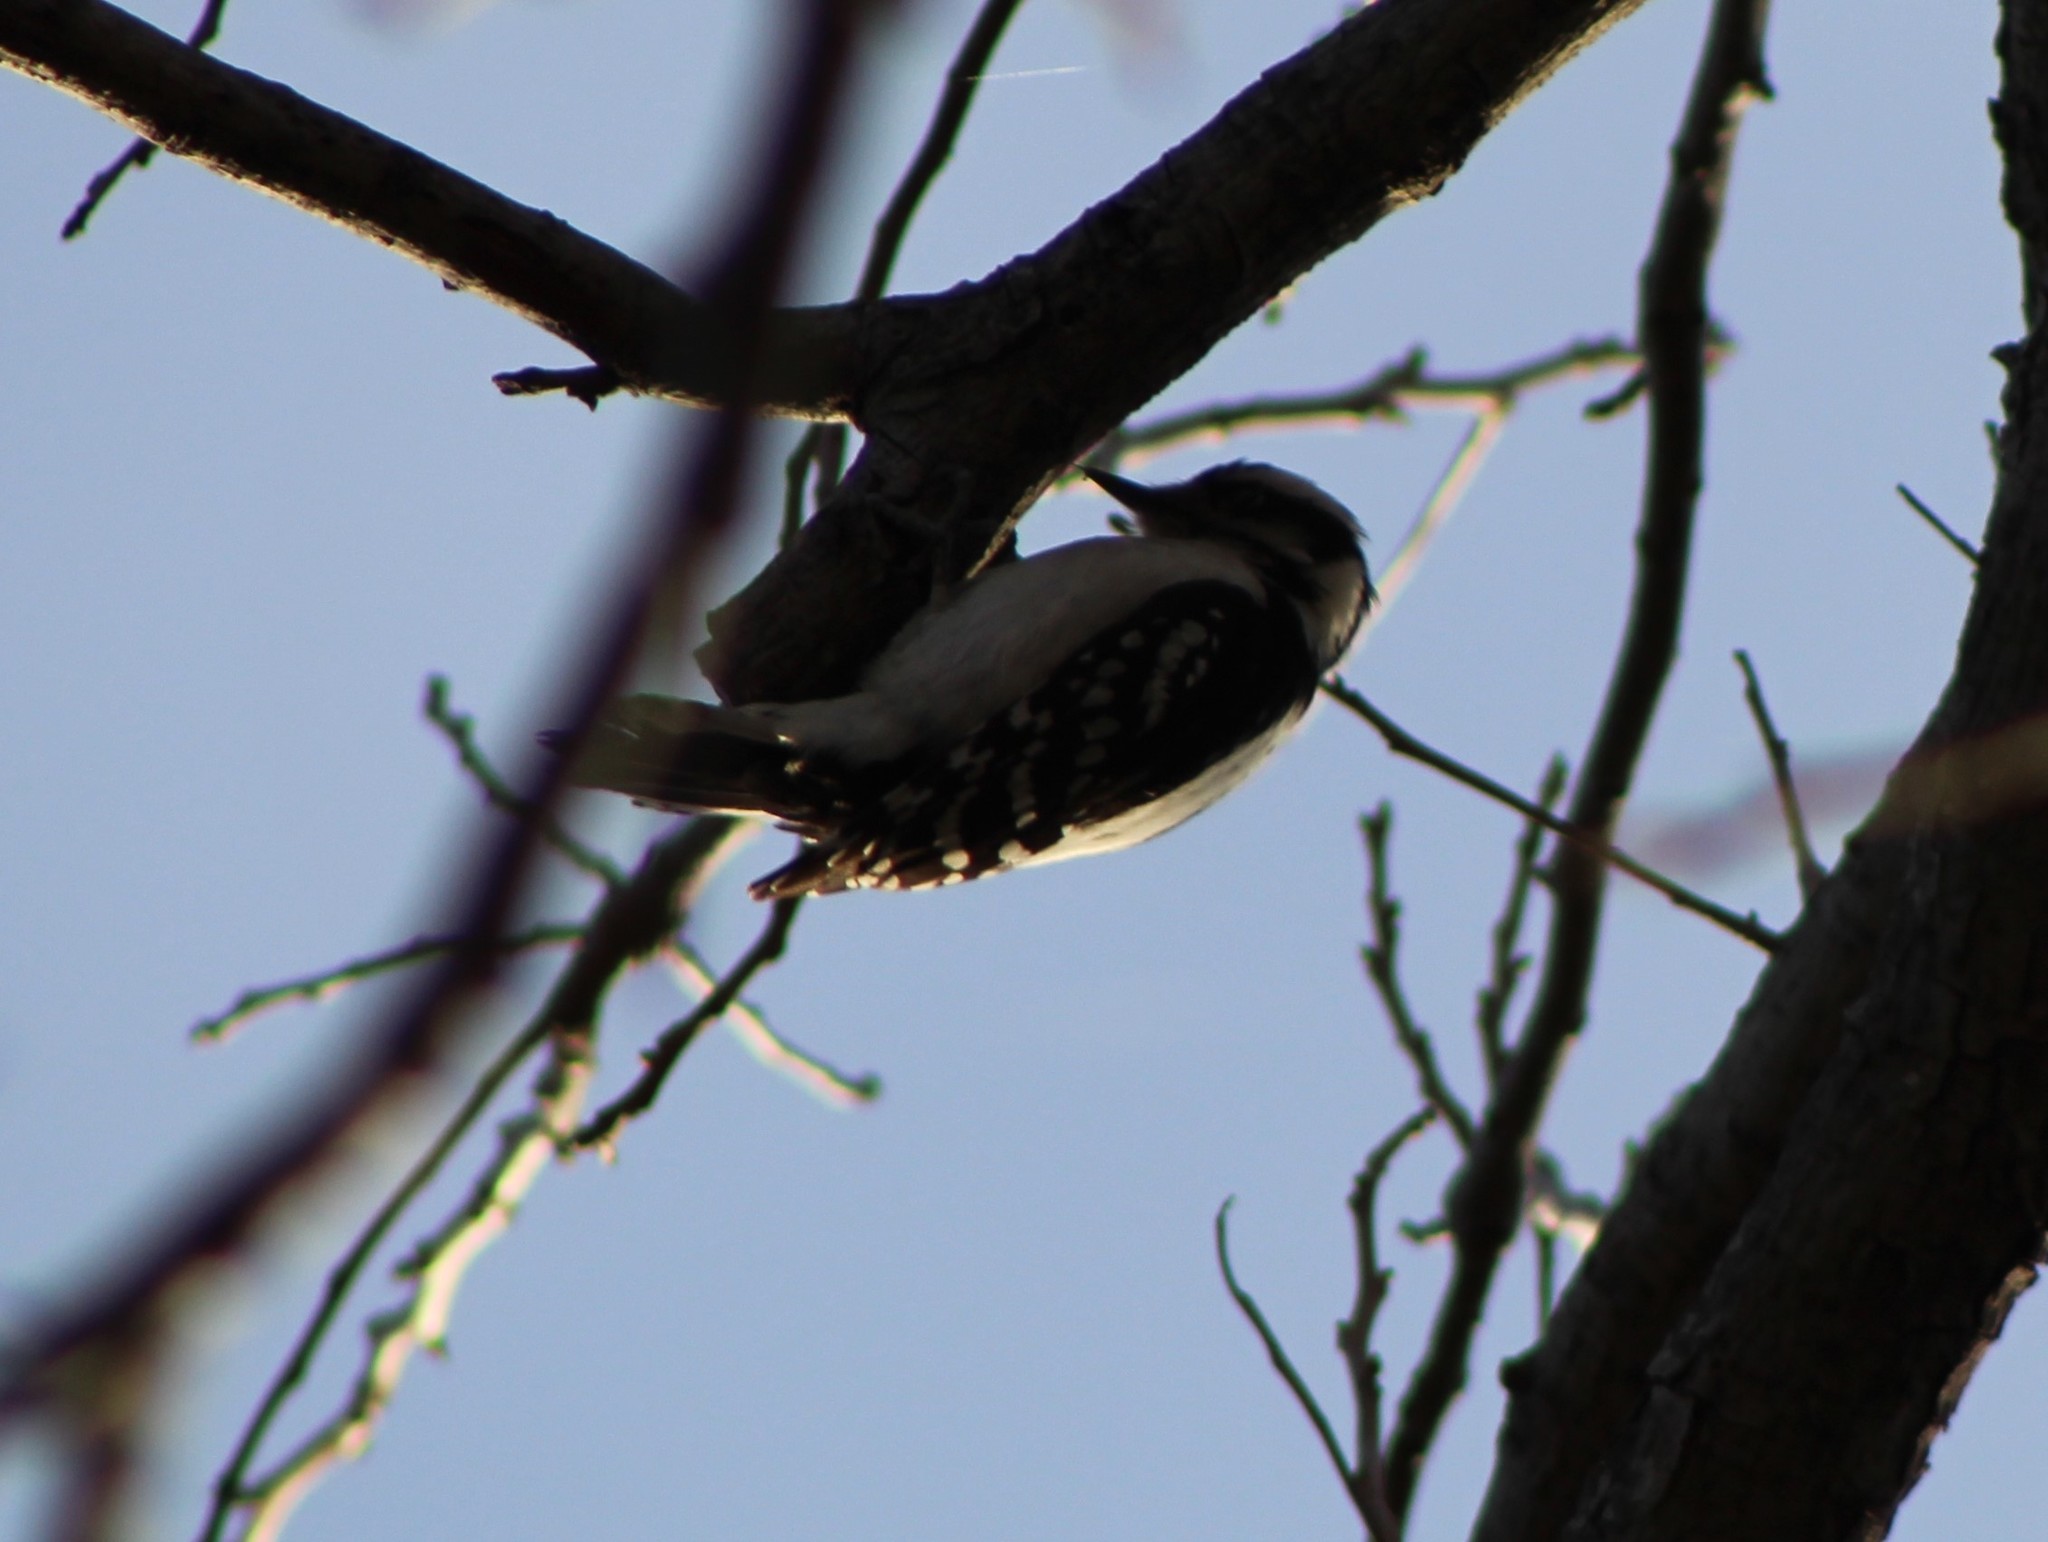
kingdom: Animalia
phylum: Chordata
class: Aves
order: Piciformes
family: Picidae
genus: Dryobates
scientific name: Dryobates pubescens
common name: Downy woodpecker
